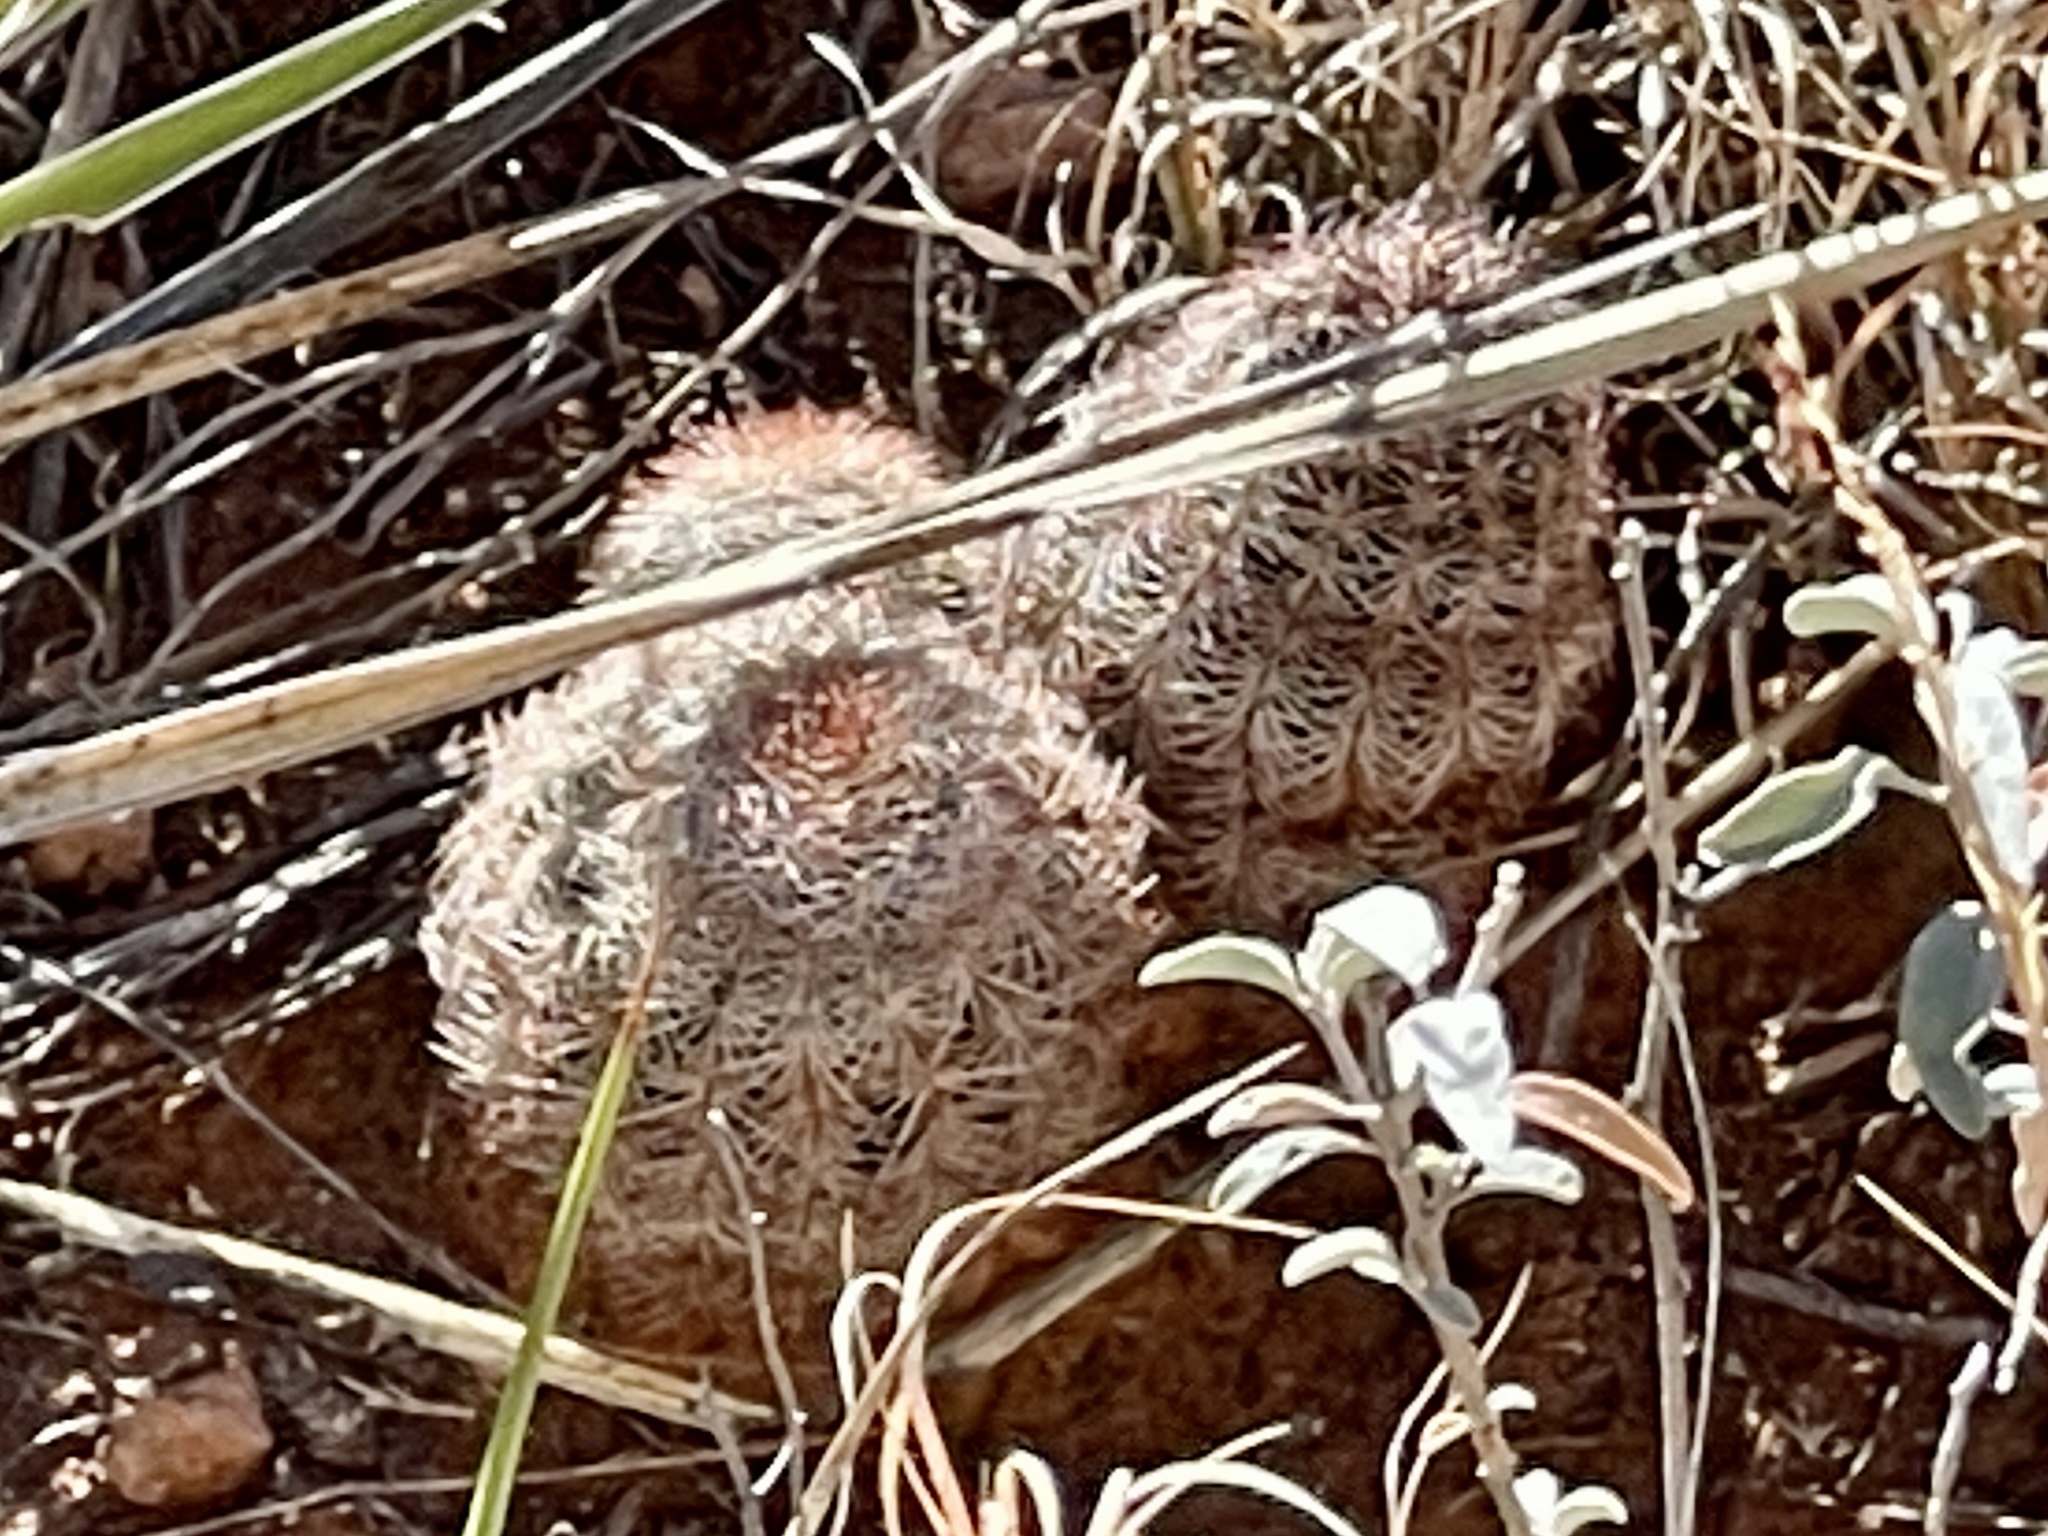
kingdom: Plantae
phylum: Tracheophyta
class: Magnoliopsida
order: Caryophyllales
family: Cactaceae
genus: Echinocereus
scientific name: Echinocereus reichenbachii
